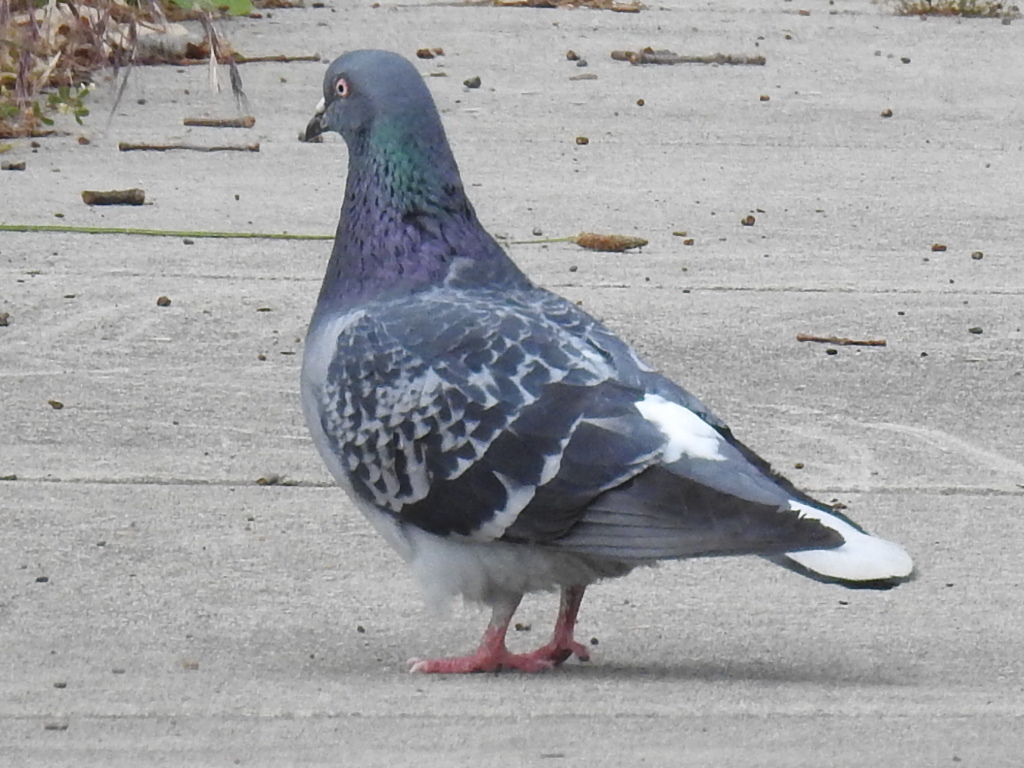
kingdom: Animalia
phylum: Chordata
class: Aves
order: Columbiformes
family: Columbidae
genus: Columba
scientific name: Columba livia
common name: Rock pigeon
